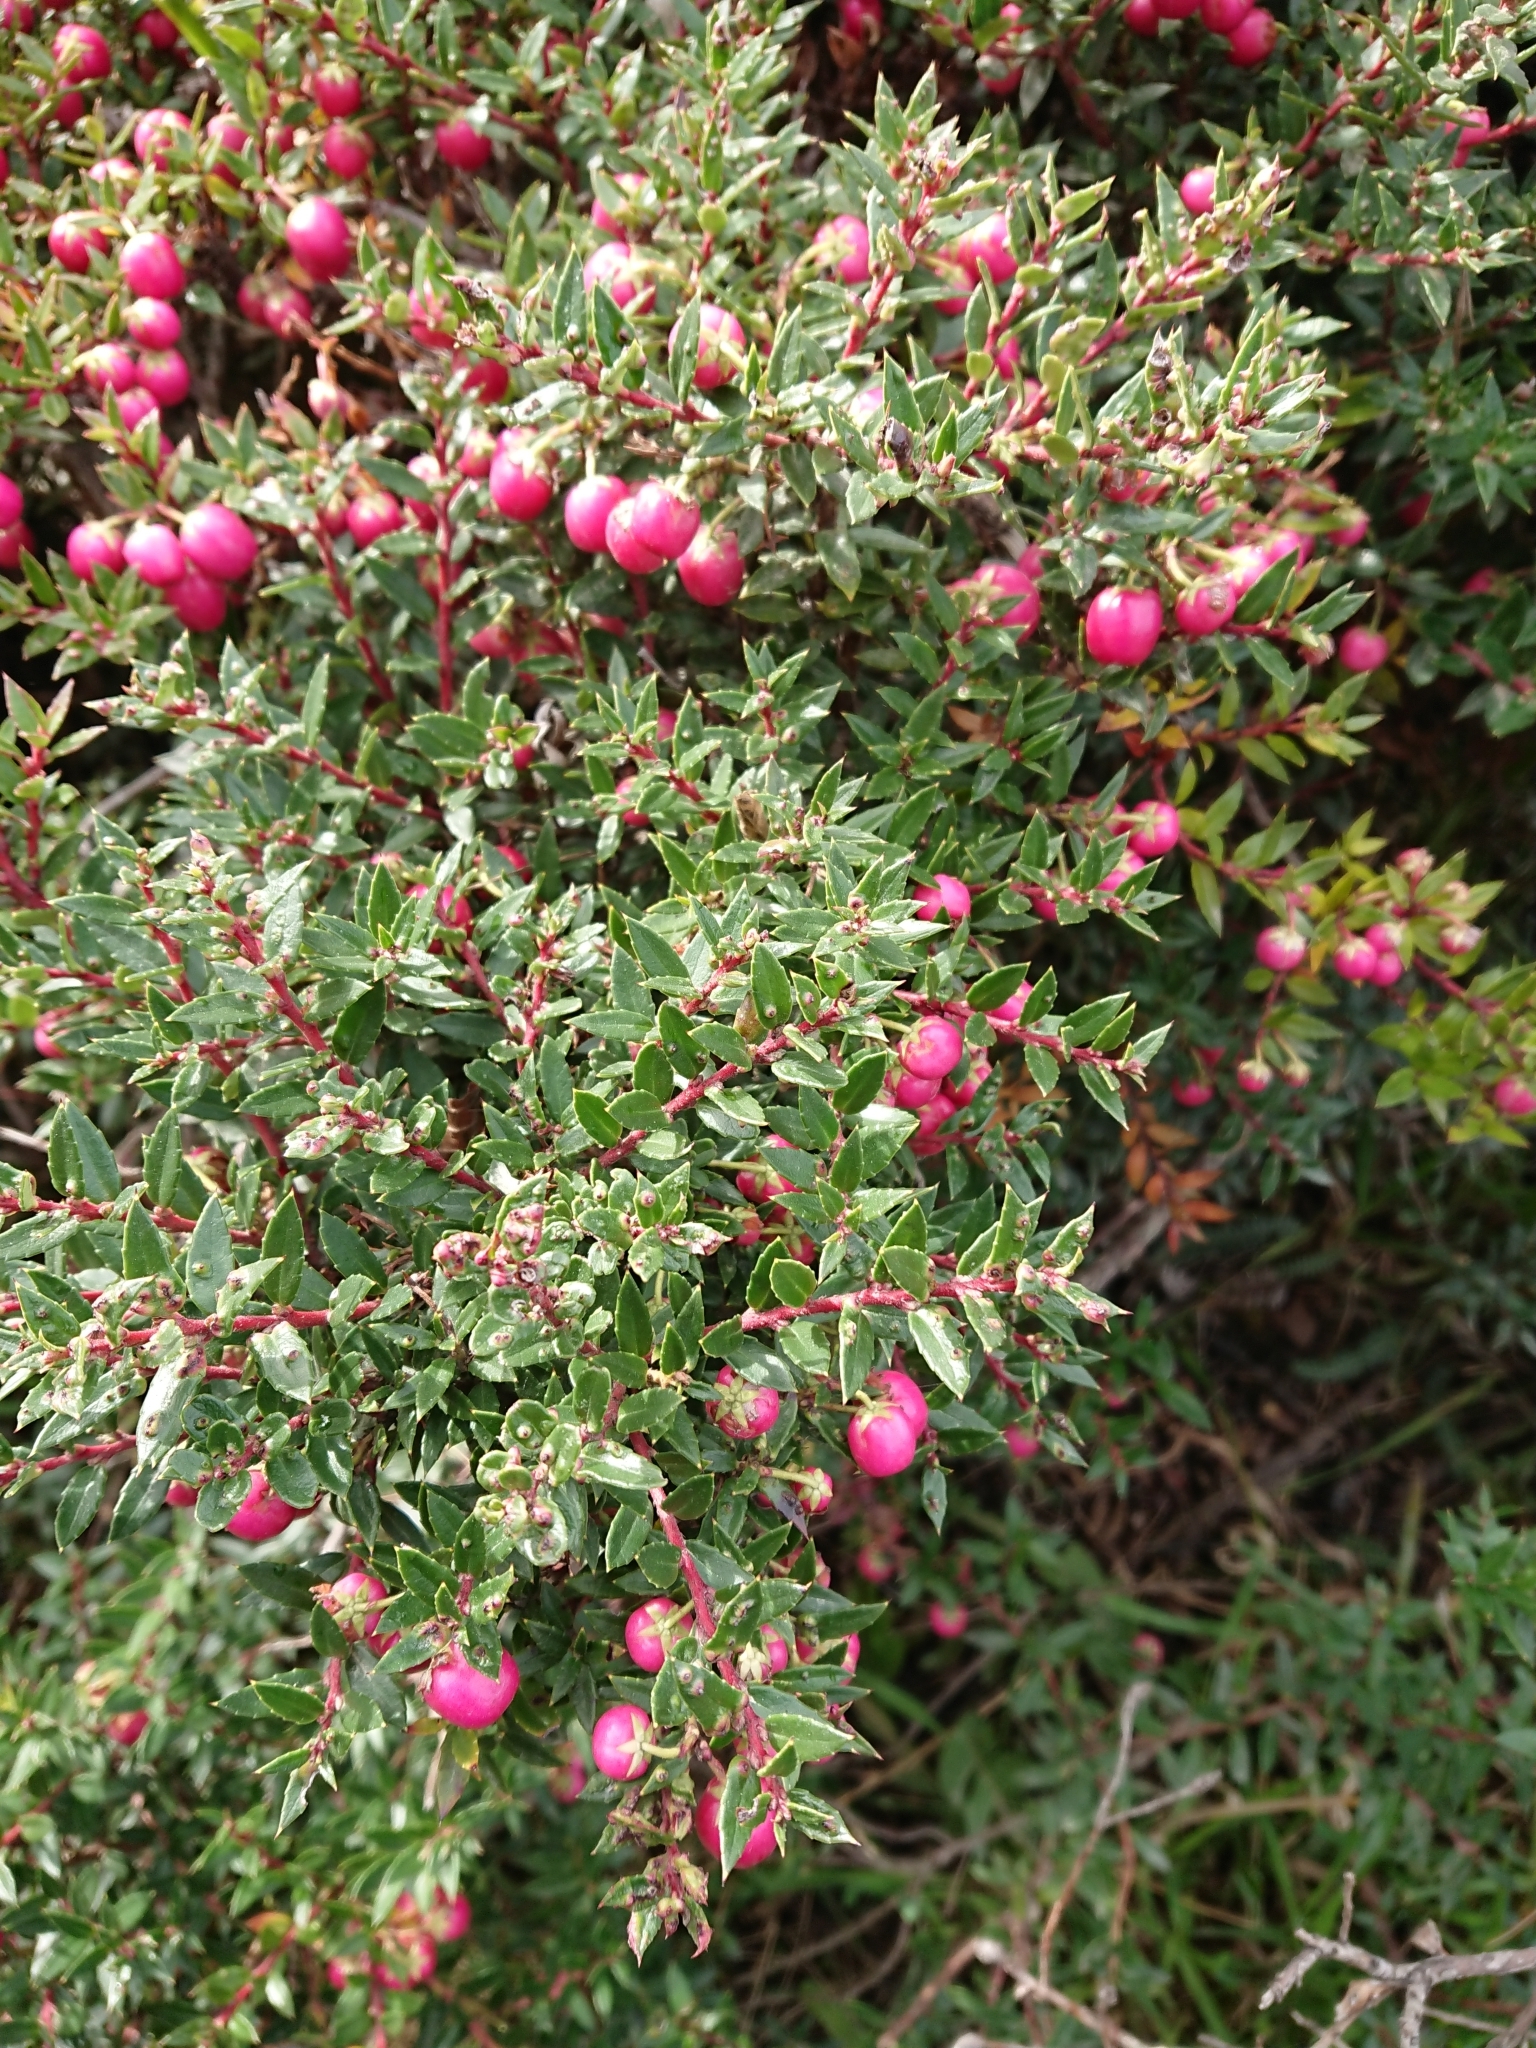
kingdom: Plantae
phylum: Tracheophyta
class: Magnoliopsida
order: Ericales
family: Ericaceae
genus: Gaultheria
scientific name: Gaultheria mucronata
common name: Prickly heath
